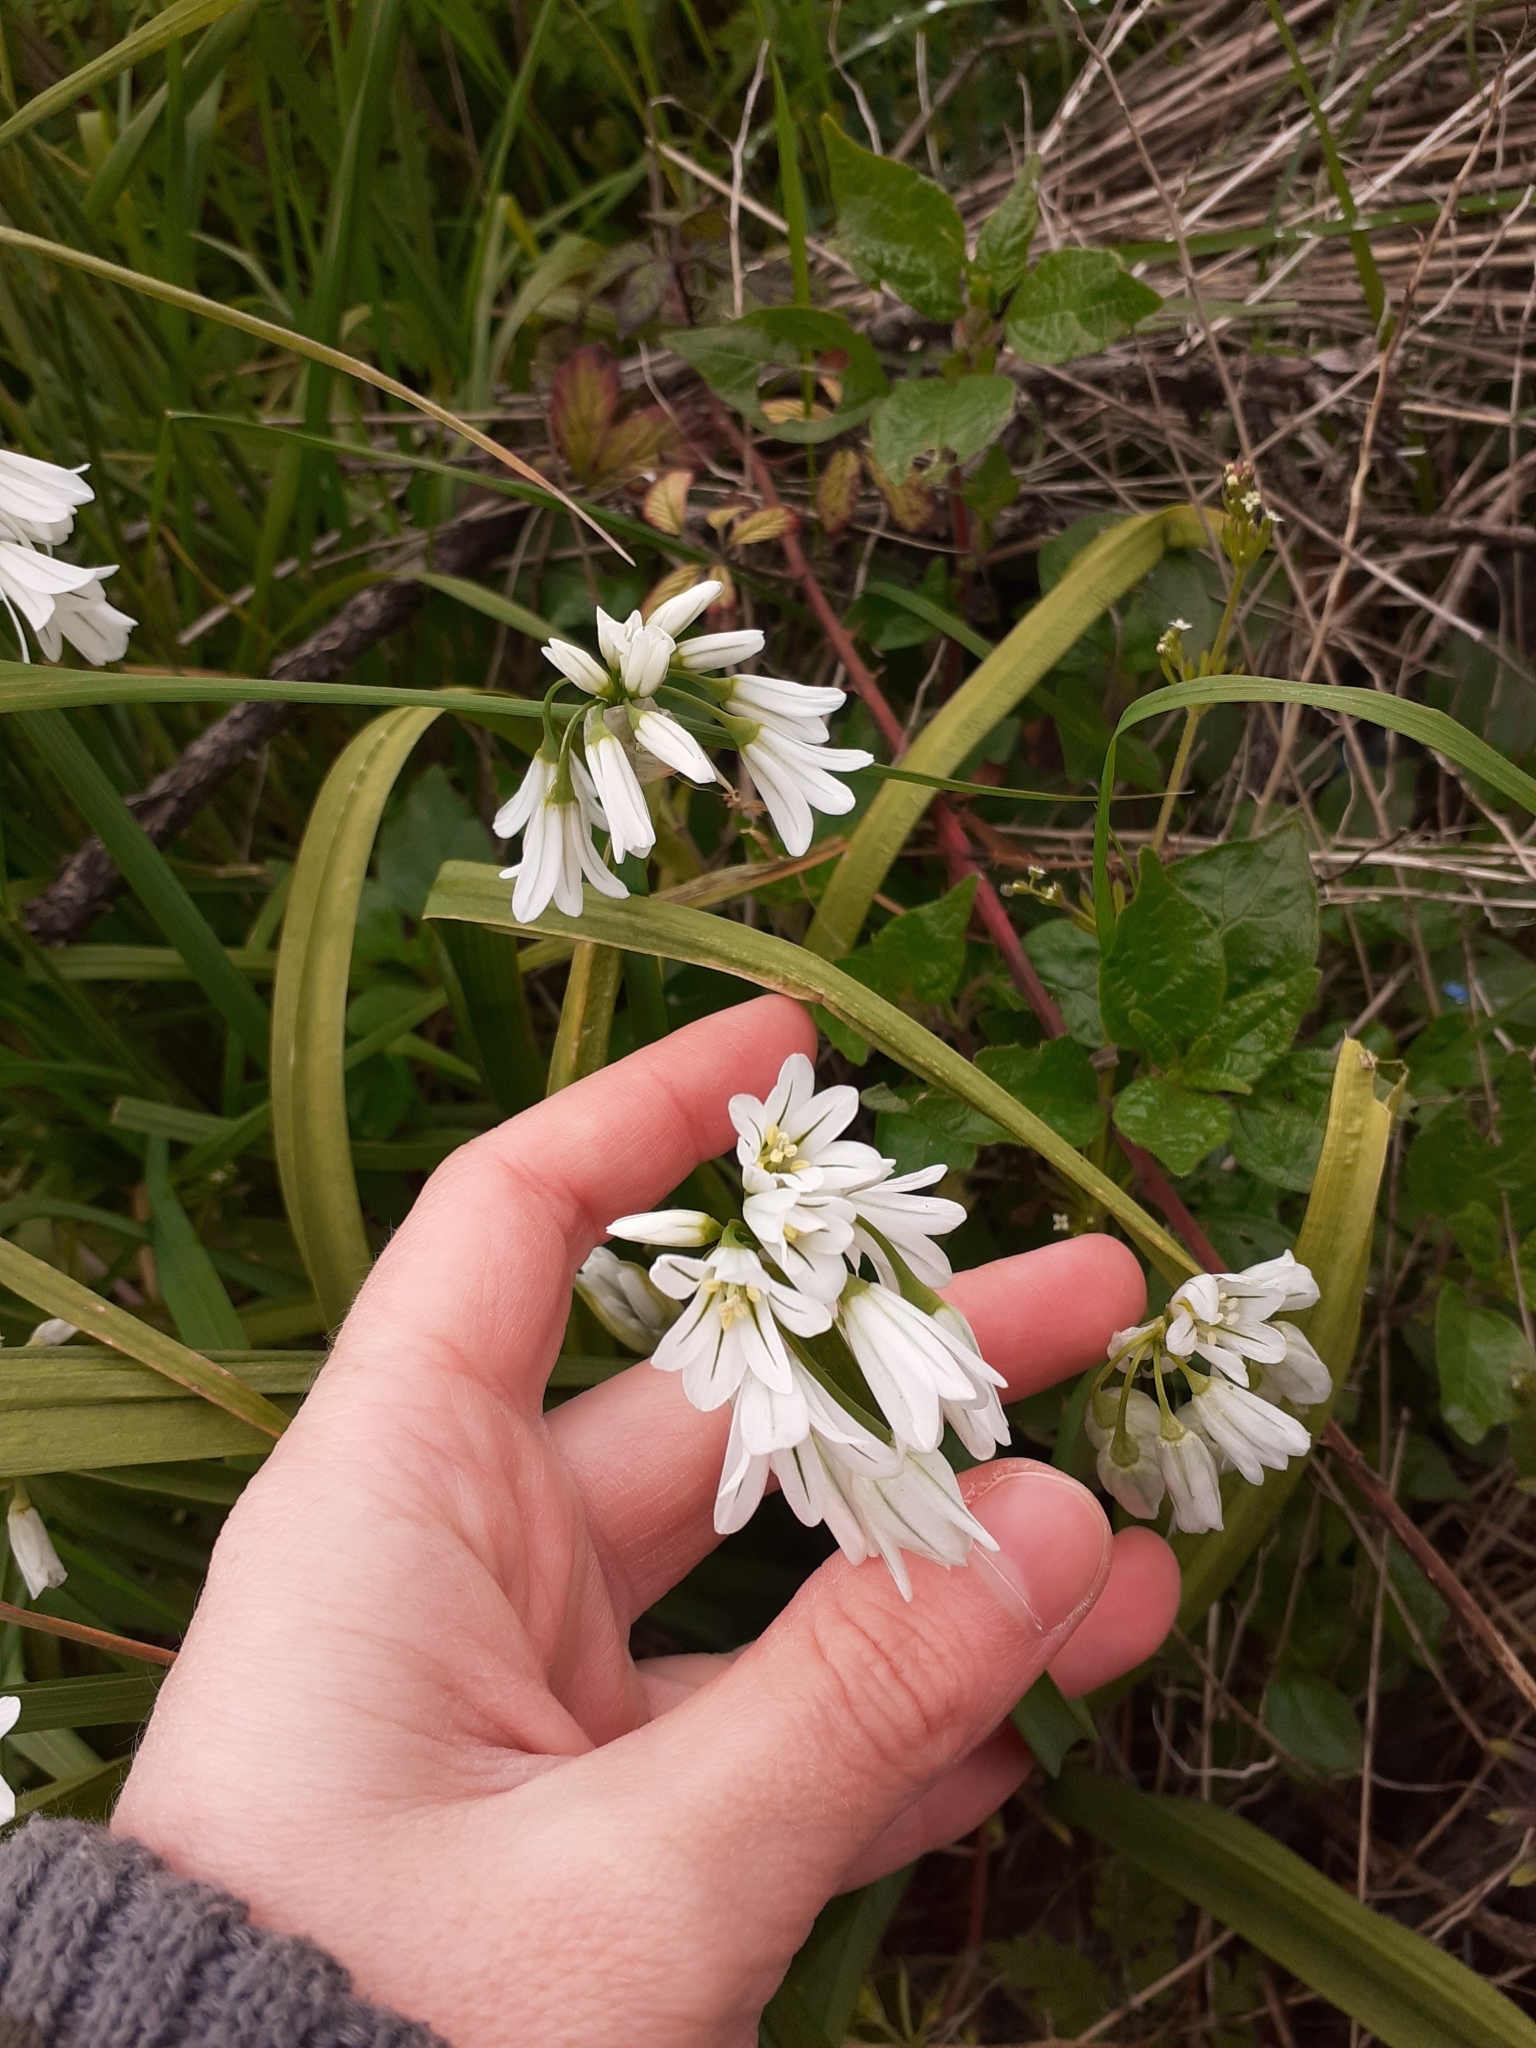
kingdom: Plantae
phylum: Tracheophyta
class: Liliopsida
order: Asparagales
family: Amaryllidaceae
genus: Allium
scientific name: Allium triquetrum
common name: Three-cornered garlic
